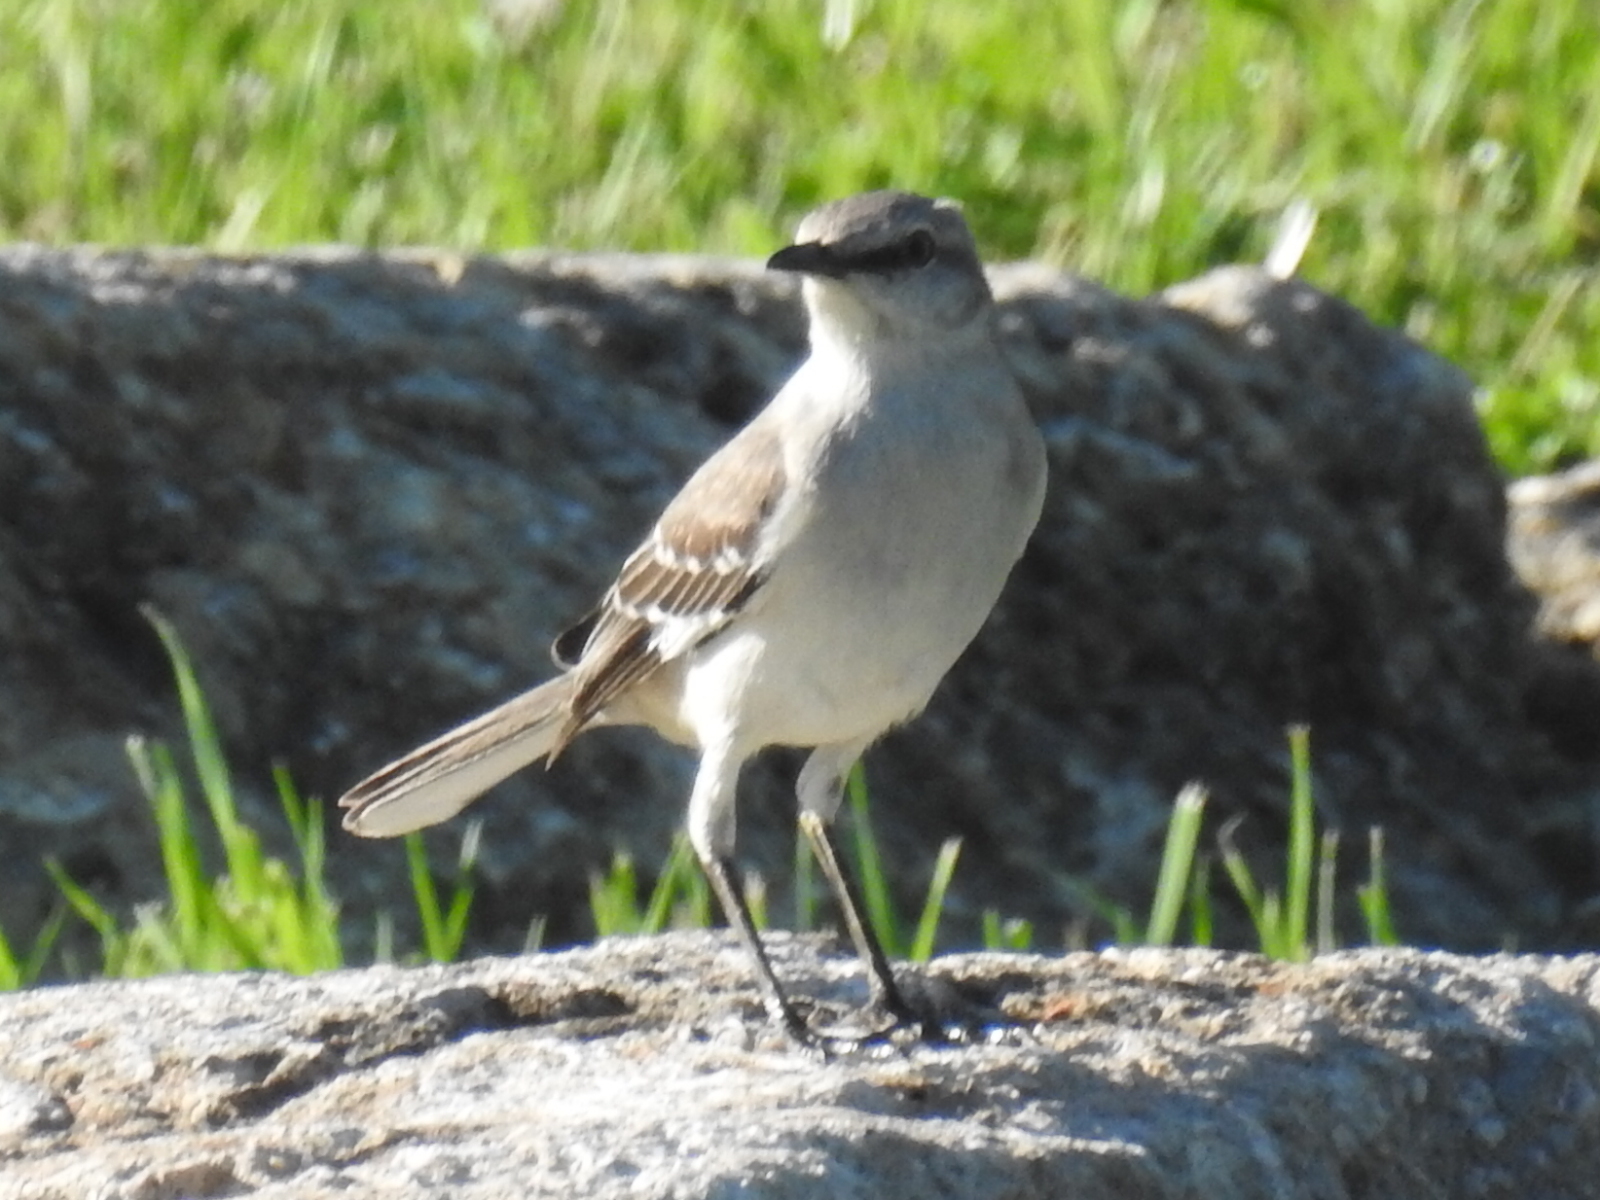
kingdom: Animalia
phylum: Chordata
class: Aves
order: Passeriformes
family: Mimidae
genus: Mimus
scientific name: Mimus polyglottos
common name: Northern mockingbird
